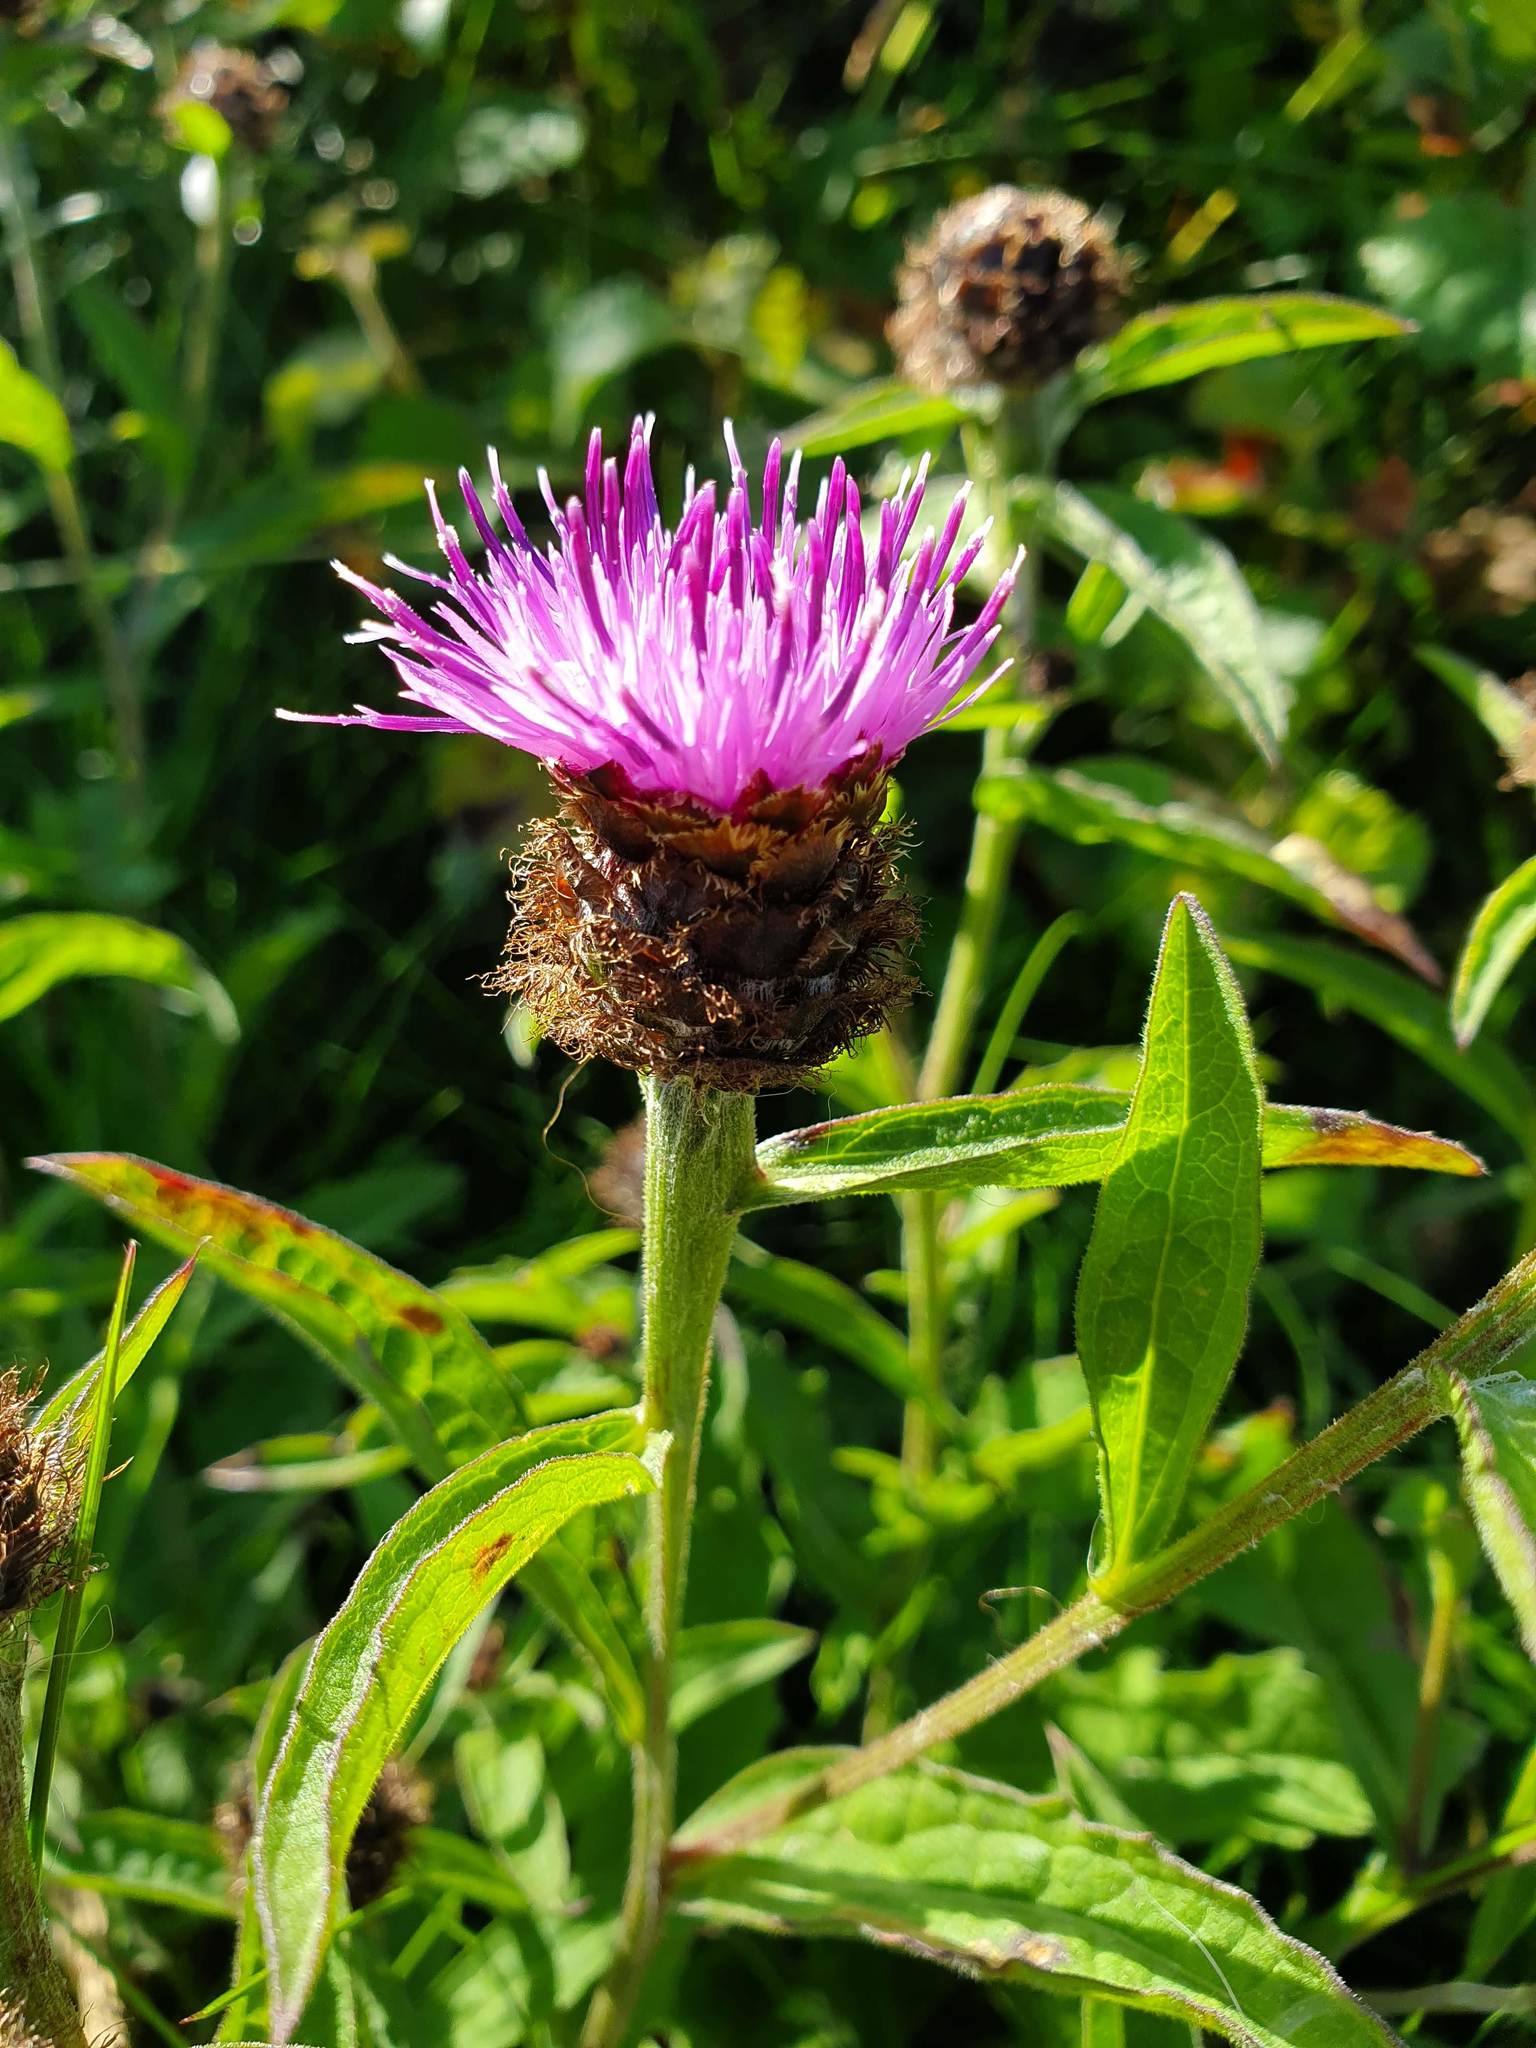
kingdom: Plantae
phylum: Tracheophyta
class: Magnoliopsida
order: Asterales
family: Asteraceae
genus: Centaurea
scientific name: Centaurea nigra
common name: Lesser knapweed
